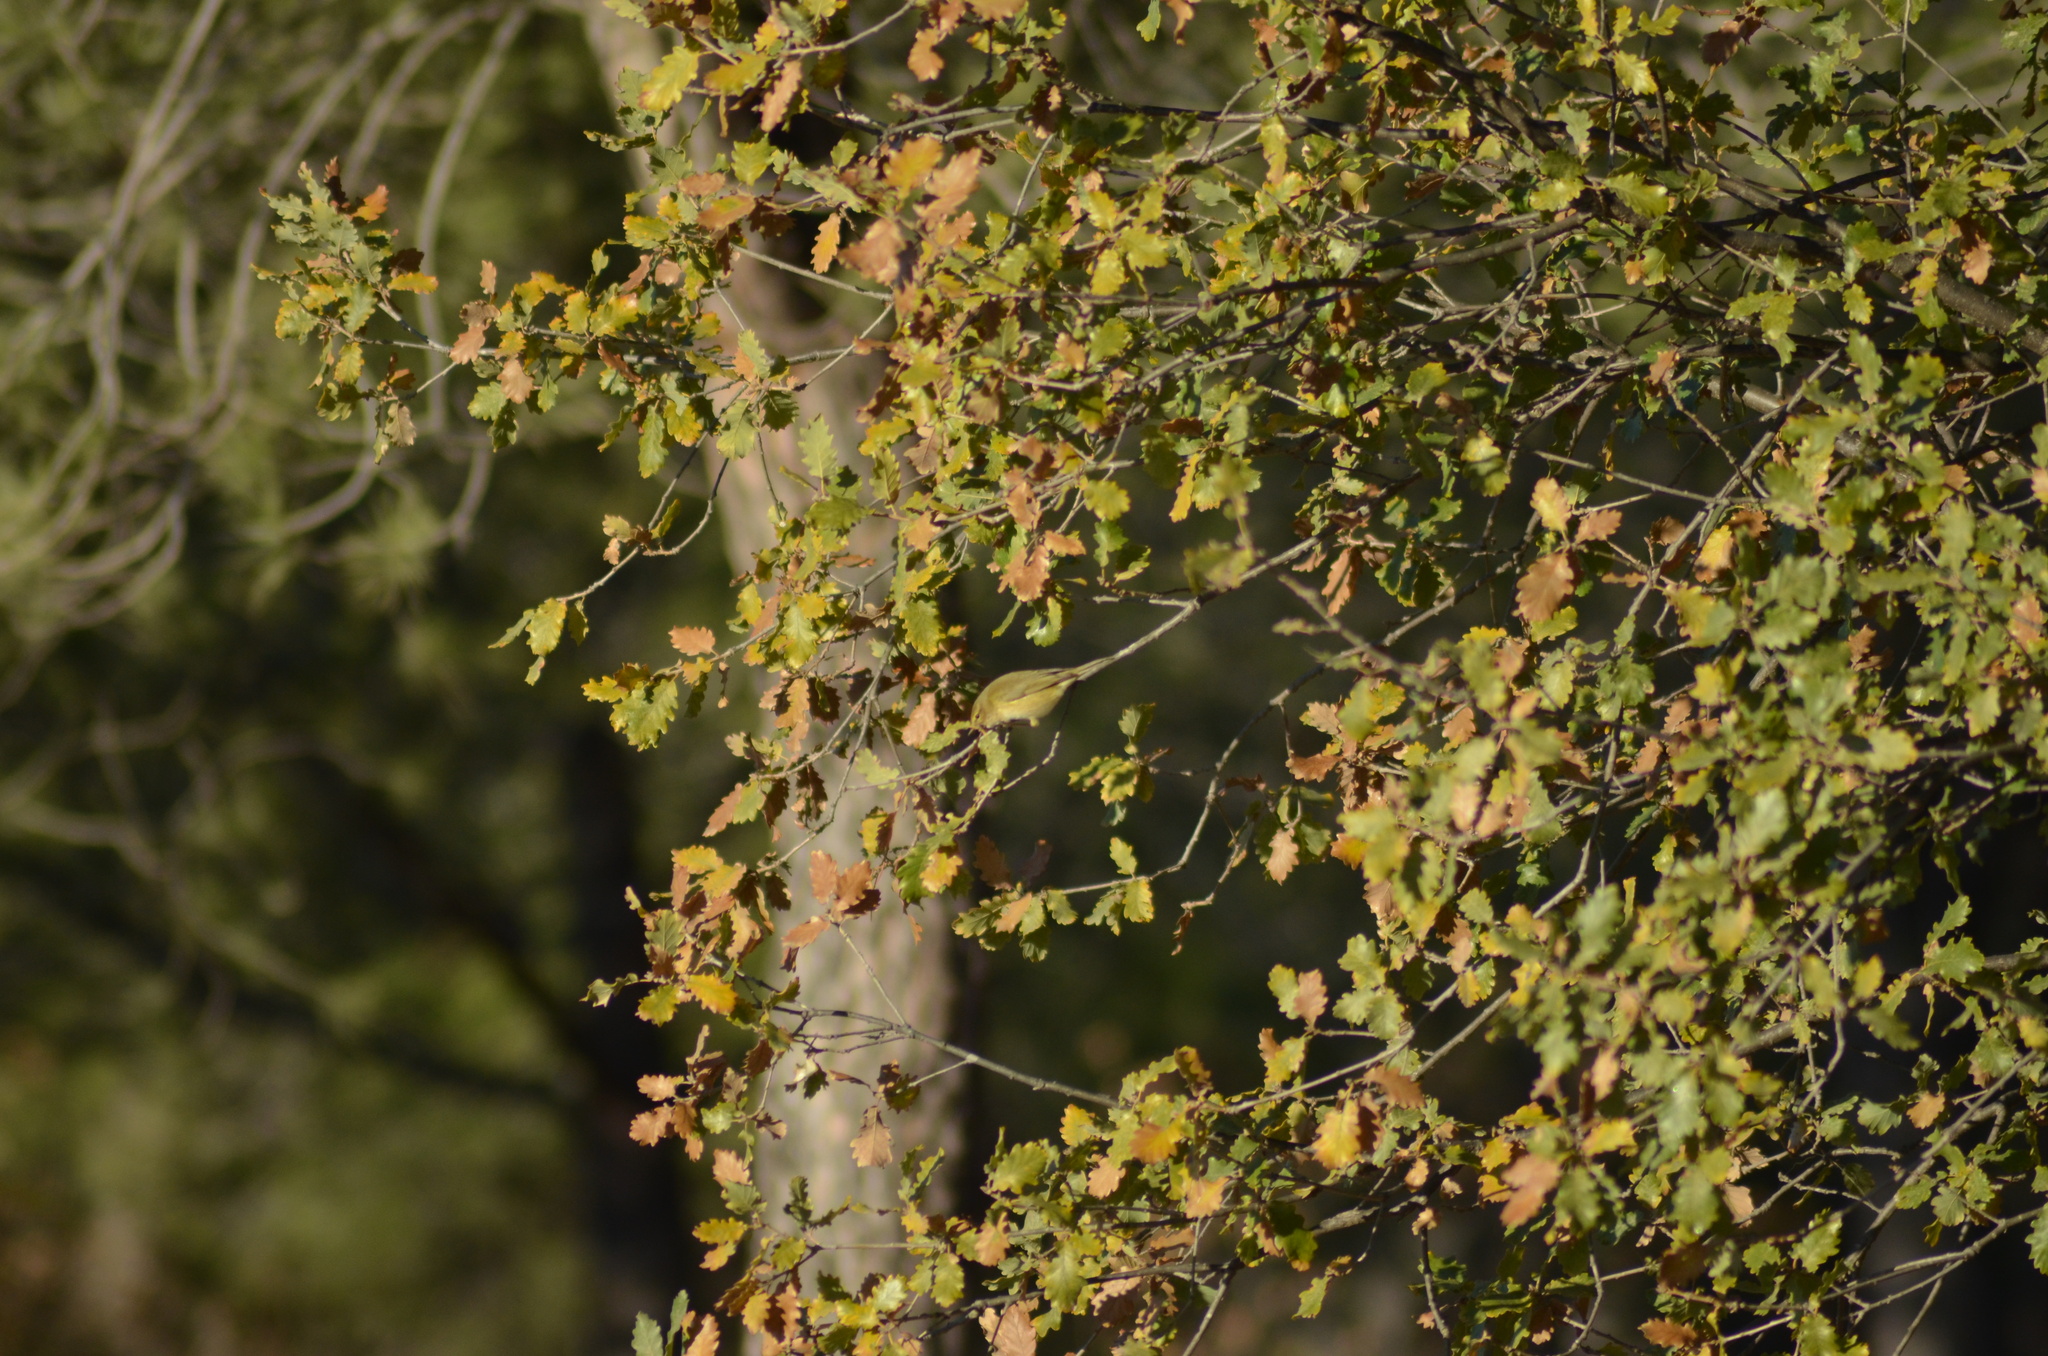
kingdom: Animalia
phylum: Chordata
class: Aves
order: Passeriformes
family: Phylloscopidae
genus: Phylloscopus
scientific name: Phylloscopus collybita
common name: Common chiffchaff
